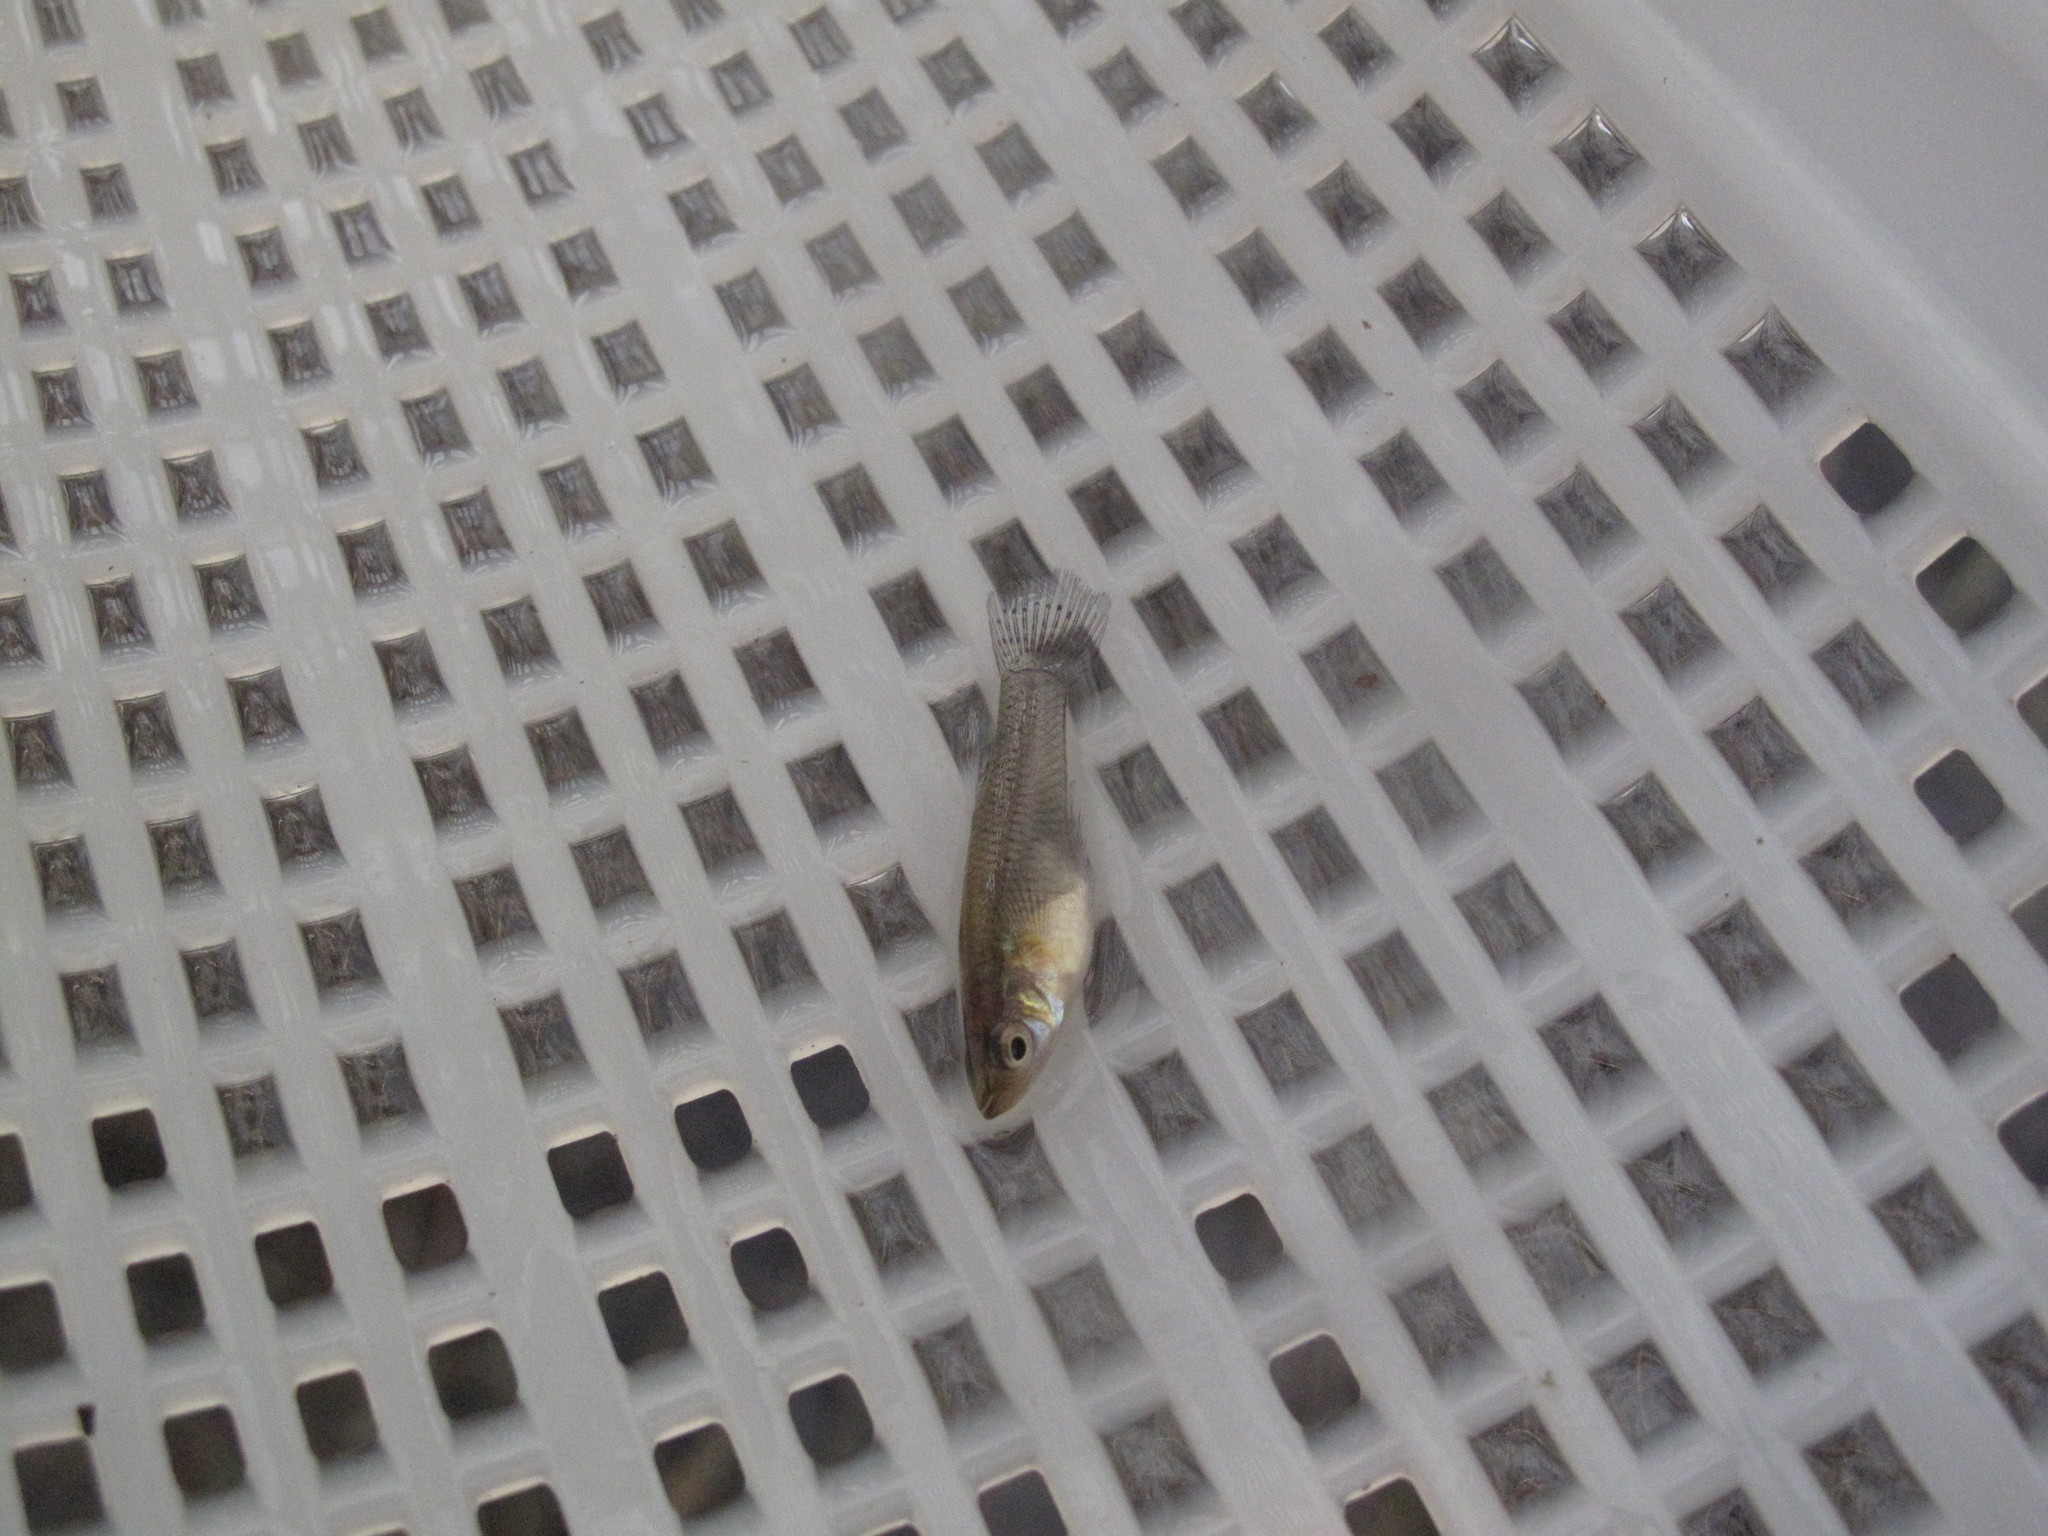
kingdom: Animalia
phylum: Chordata
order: Cyprinodontiformes
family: Poeciliidae
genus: Gambusia
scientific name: Gambusia holbrooki
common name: Eastern mosquitofish
